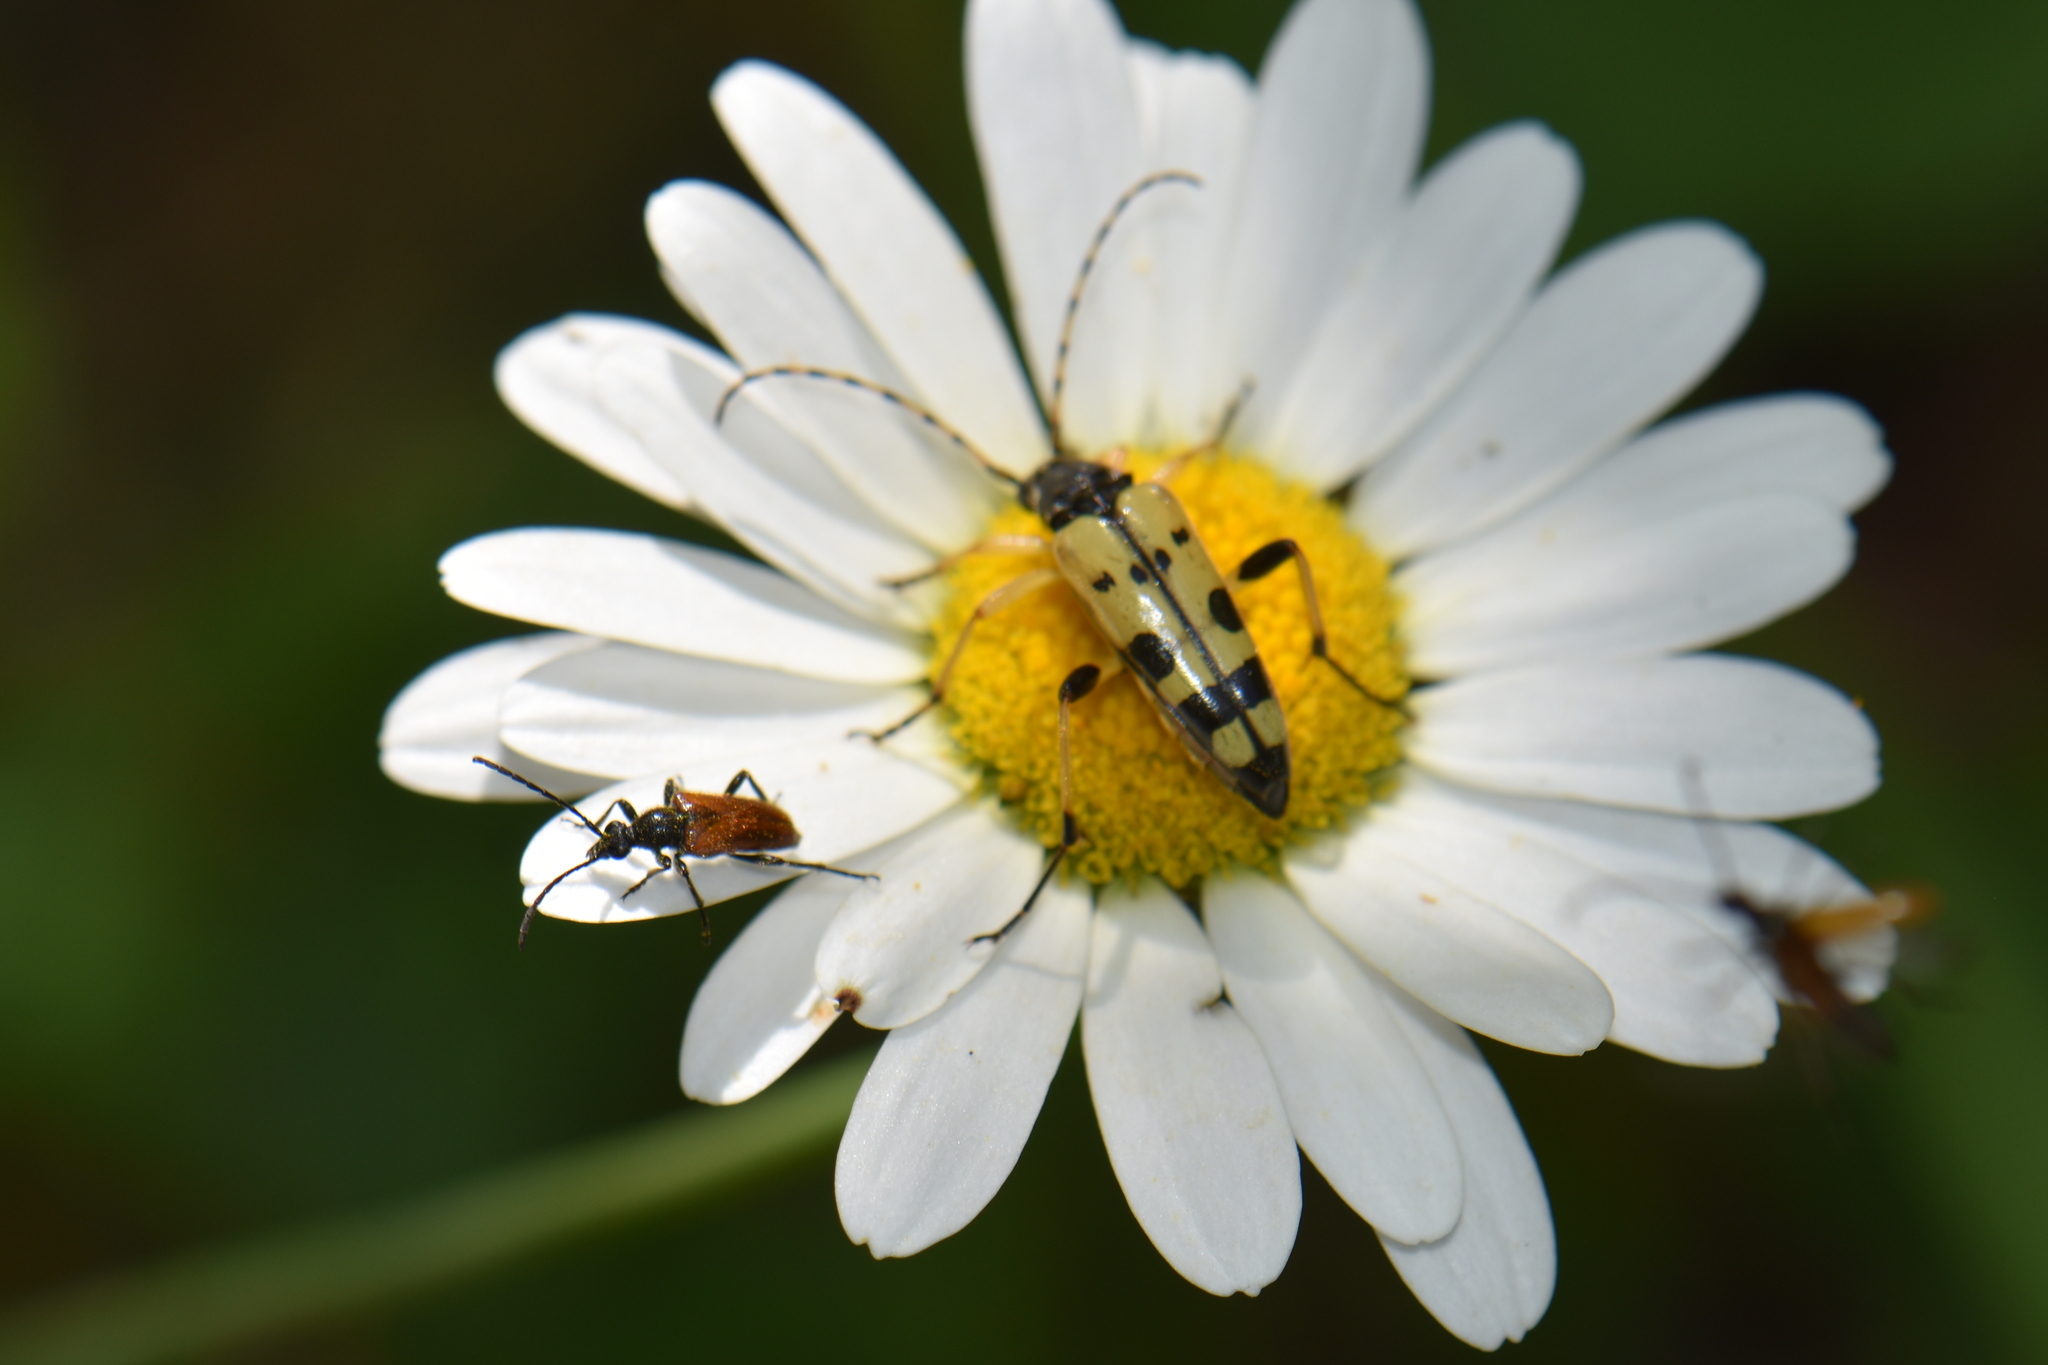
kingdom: Animalia
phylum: Arthropoda
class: Insecta
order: Coleoptera
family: Cerambycidae
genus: Rutpela
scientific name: Rutpela maculata
